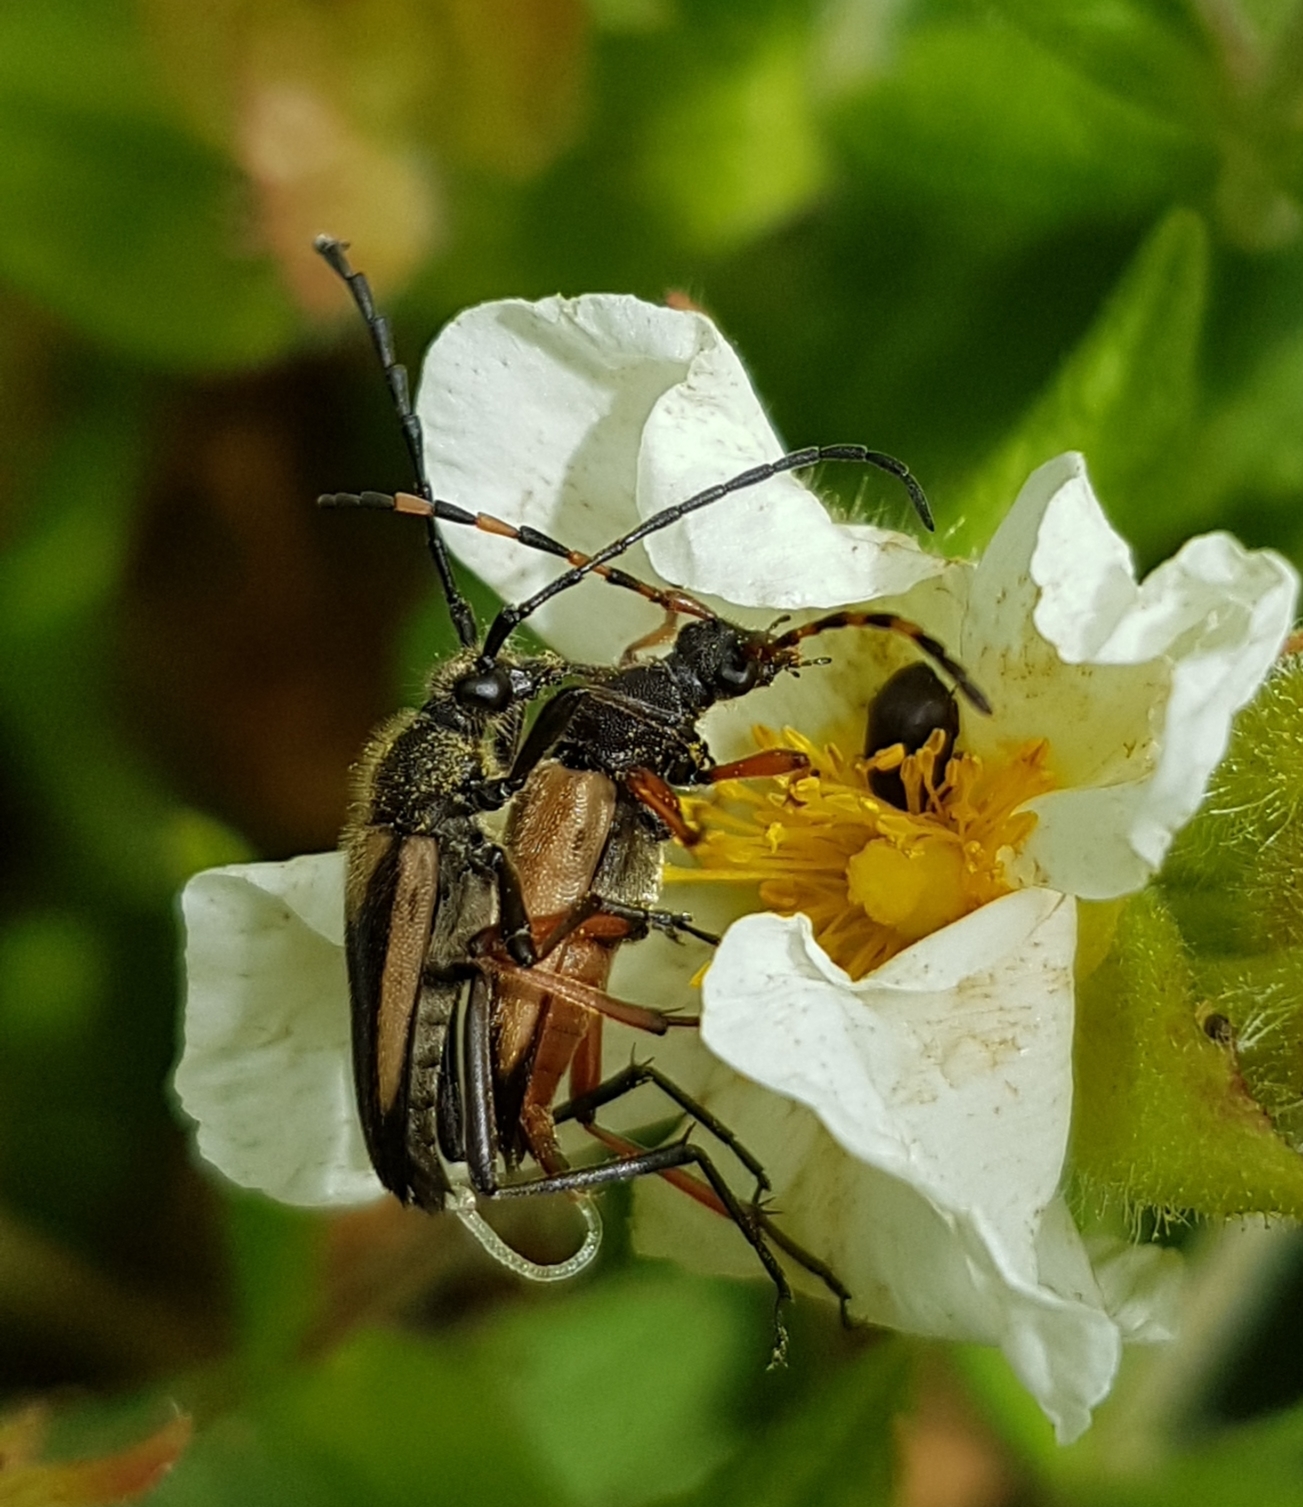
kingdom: Animalia
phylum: Arthropoda
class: Insecta
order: Coleoptera
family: Cerambycidae
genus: Stictoleptura
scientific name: Stictoleptura stragulata
